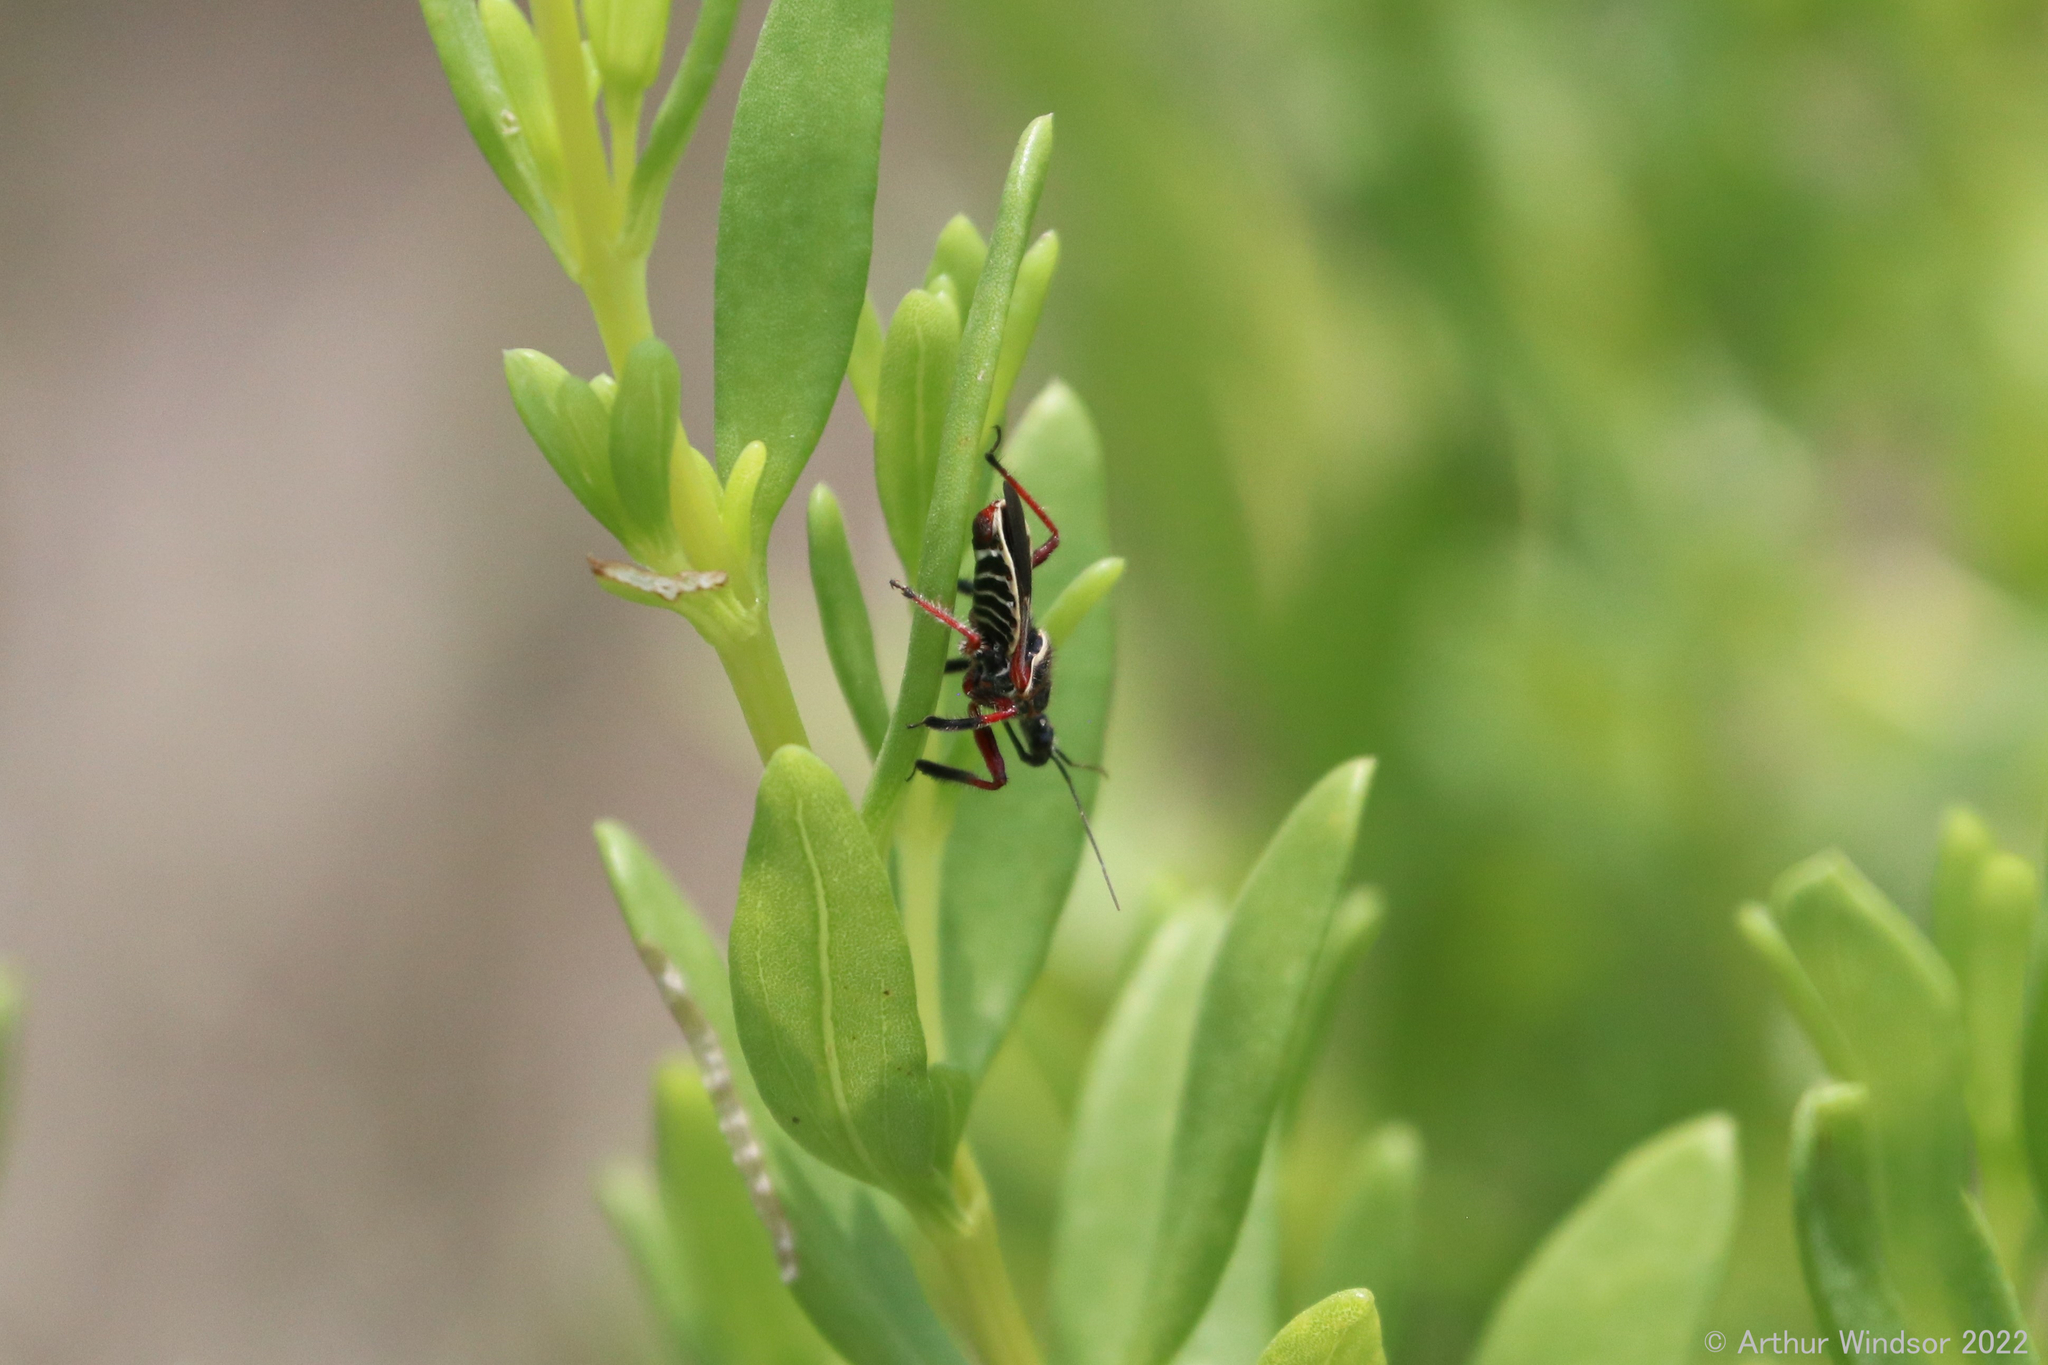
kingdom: Animalia
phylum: Arthropoda
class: Insecta
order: Hemiptera
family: Reduviidae
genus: Apiomerus
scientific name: Apiomerus floridensis
